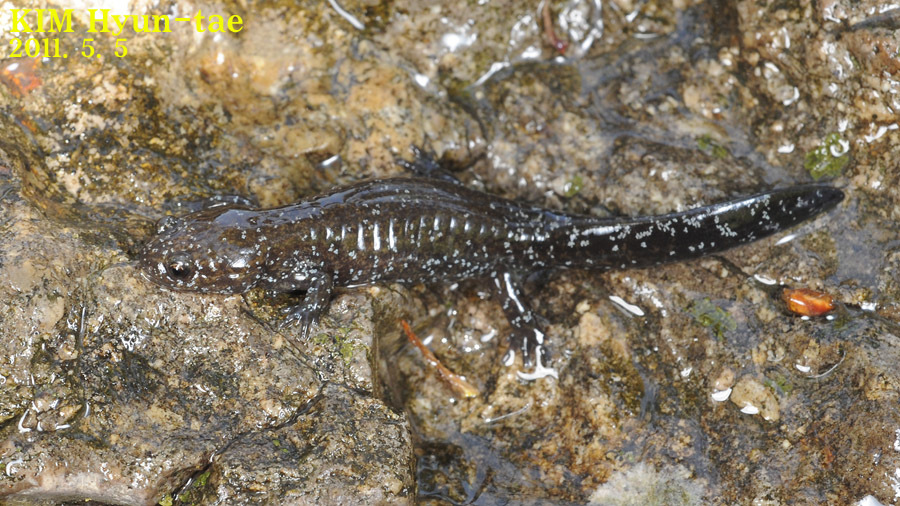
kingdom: Animalia
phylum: Chordata
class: Amphibia
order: Caudata
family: Hynobiidae
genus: Hynobius
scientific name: Hynobius leechii
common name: Gensan salamander
